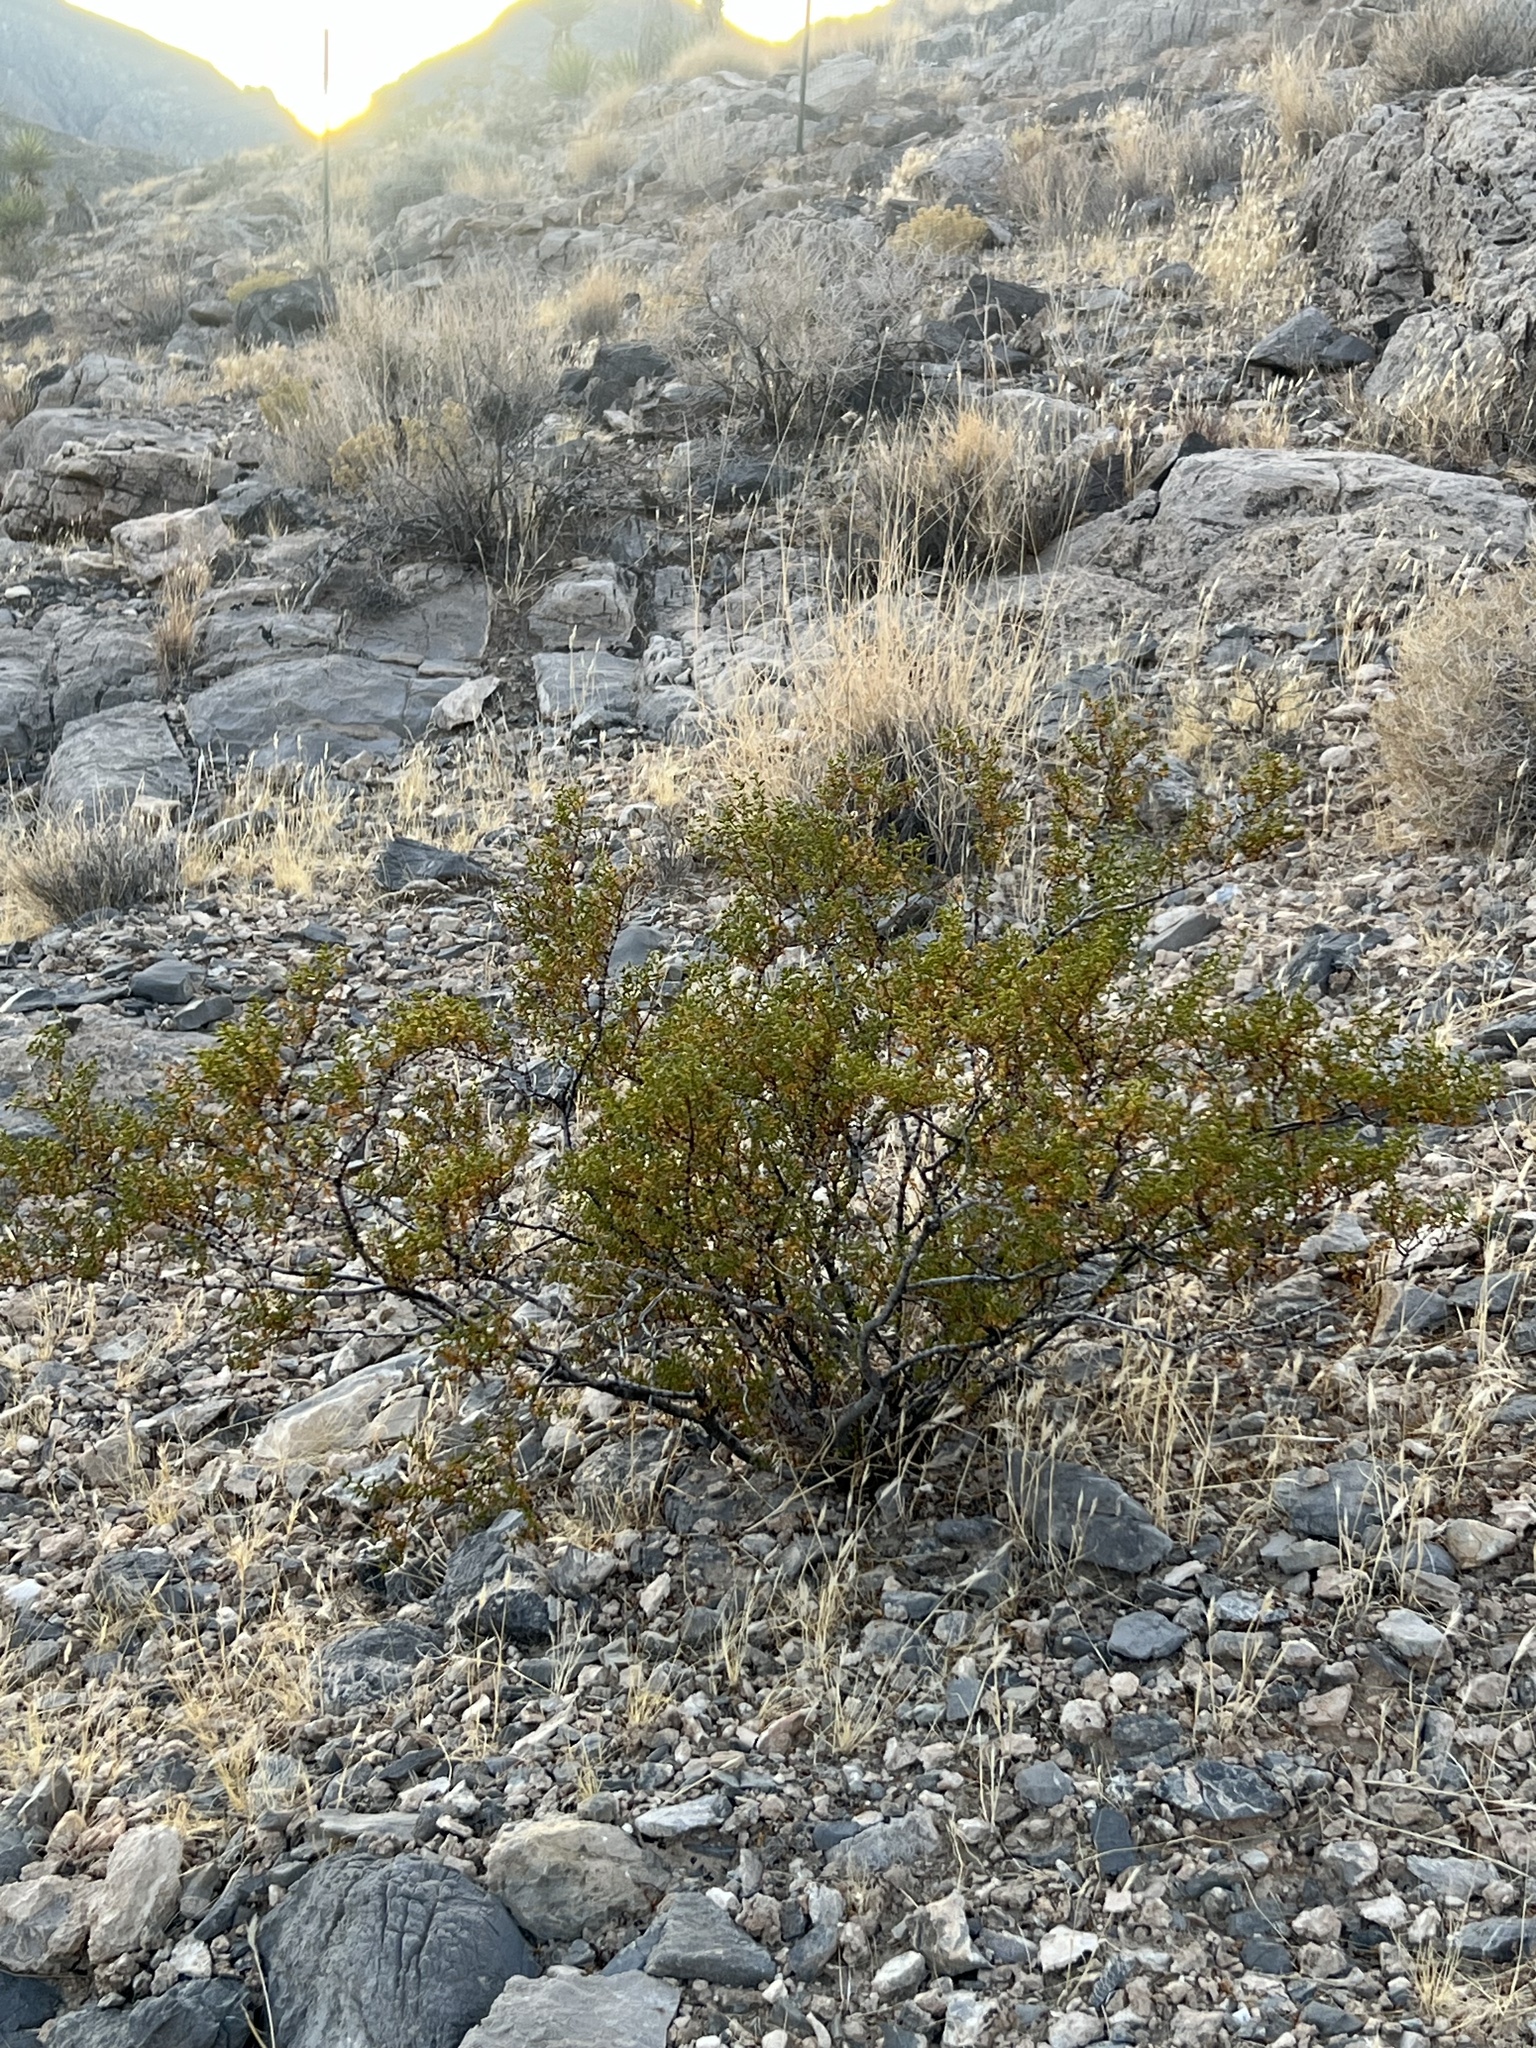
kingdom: Plantae
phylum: Tracheophyta
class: Magnoliopsida
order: Zygophyllales
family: Zygophyllaceae
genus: Larrea
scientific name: Larrea tridentata
